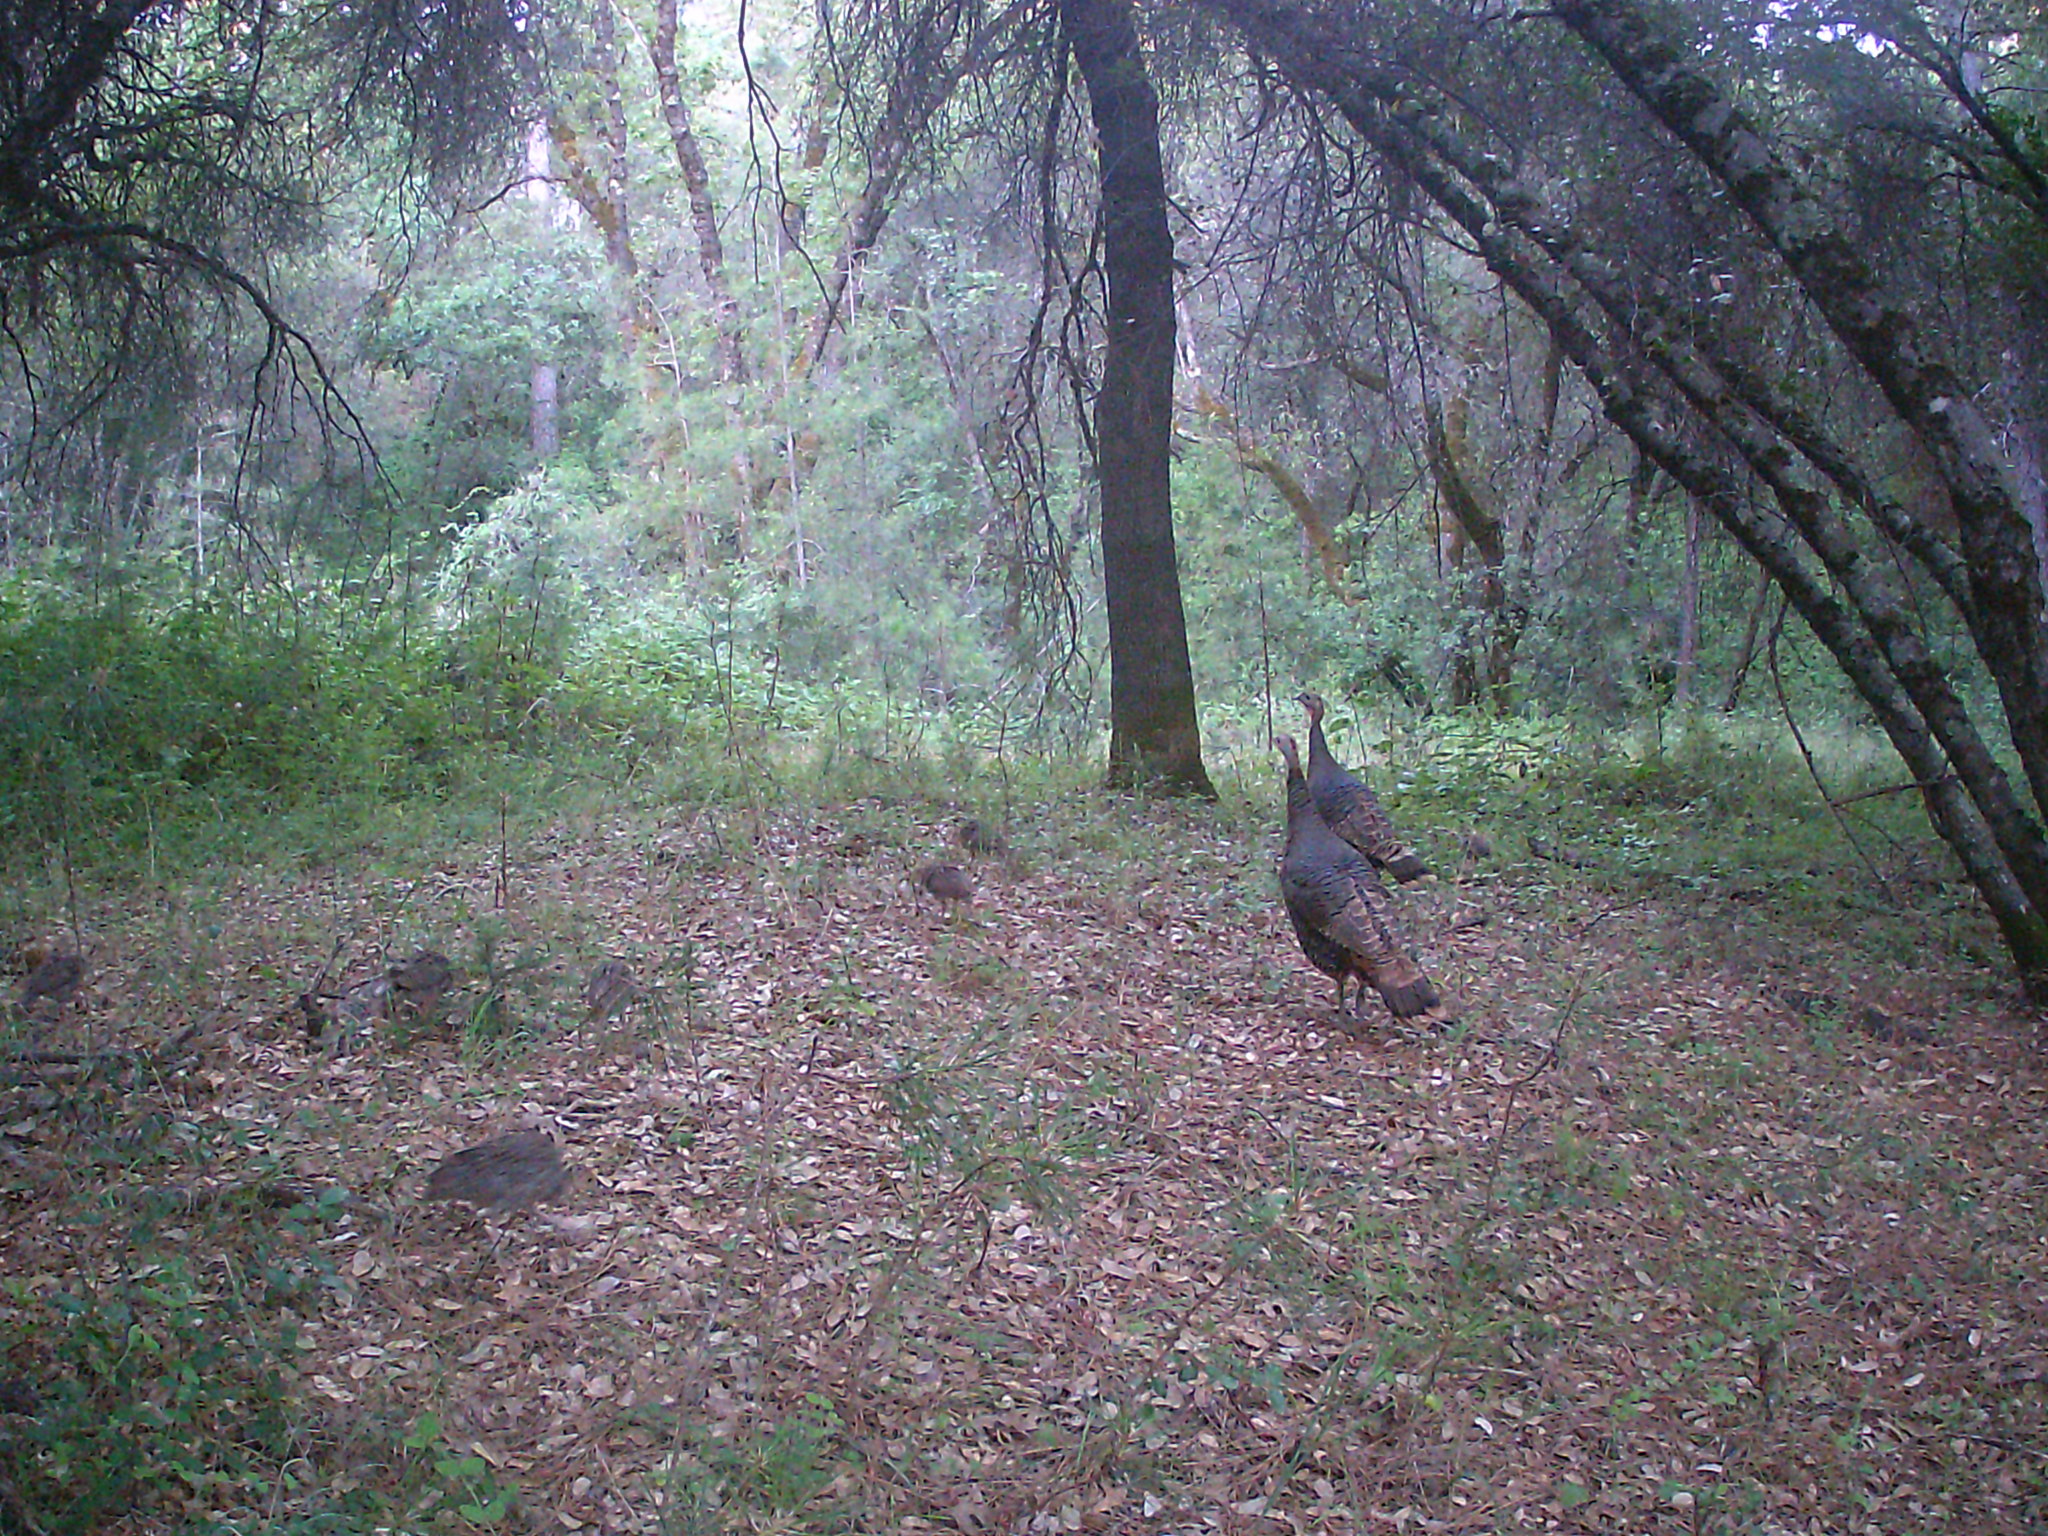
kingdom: Animalia
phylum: Chordata
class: Aves
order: Galliformes
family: Phasianidae
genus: Meleagris
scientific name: Meleagris gallopavo
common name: Wild turkey
